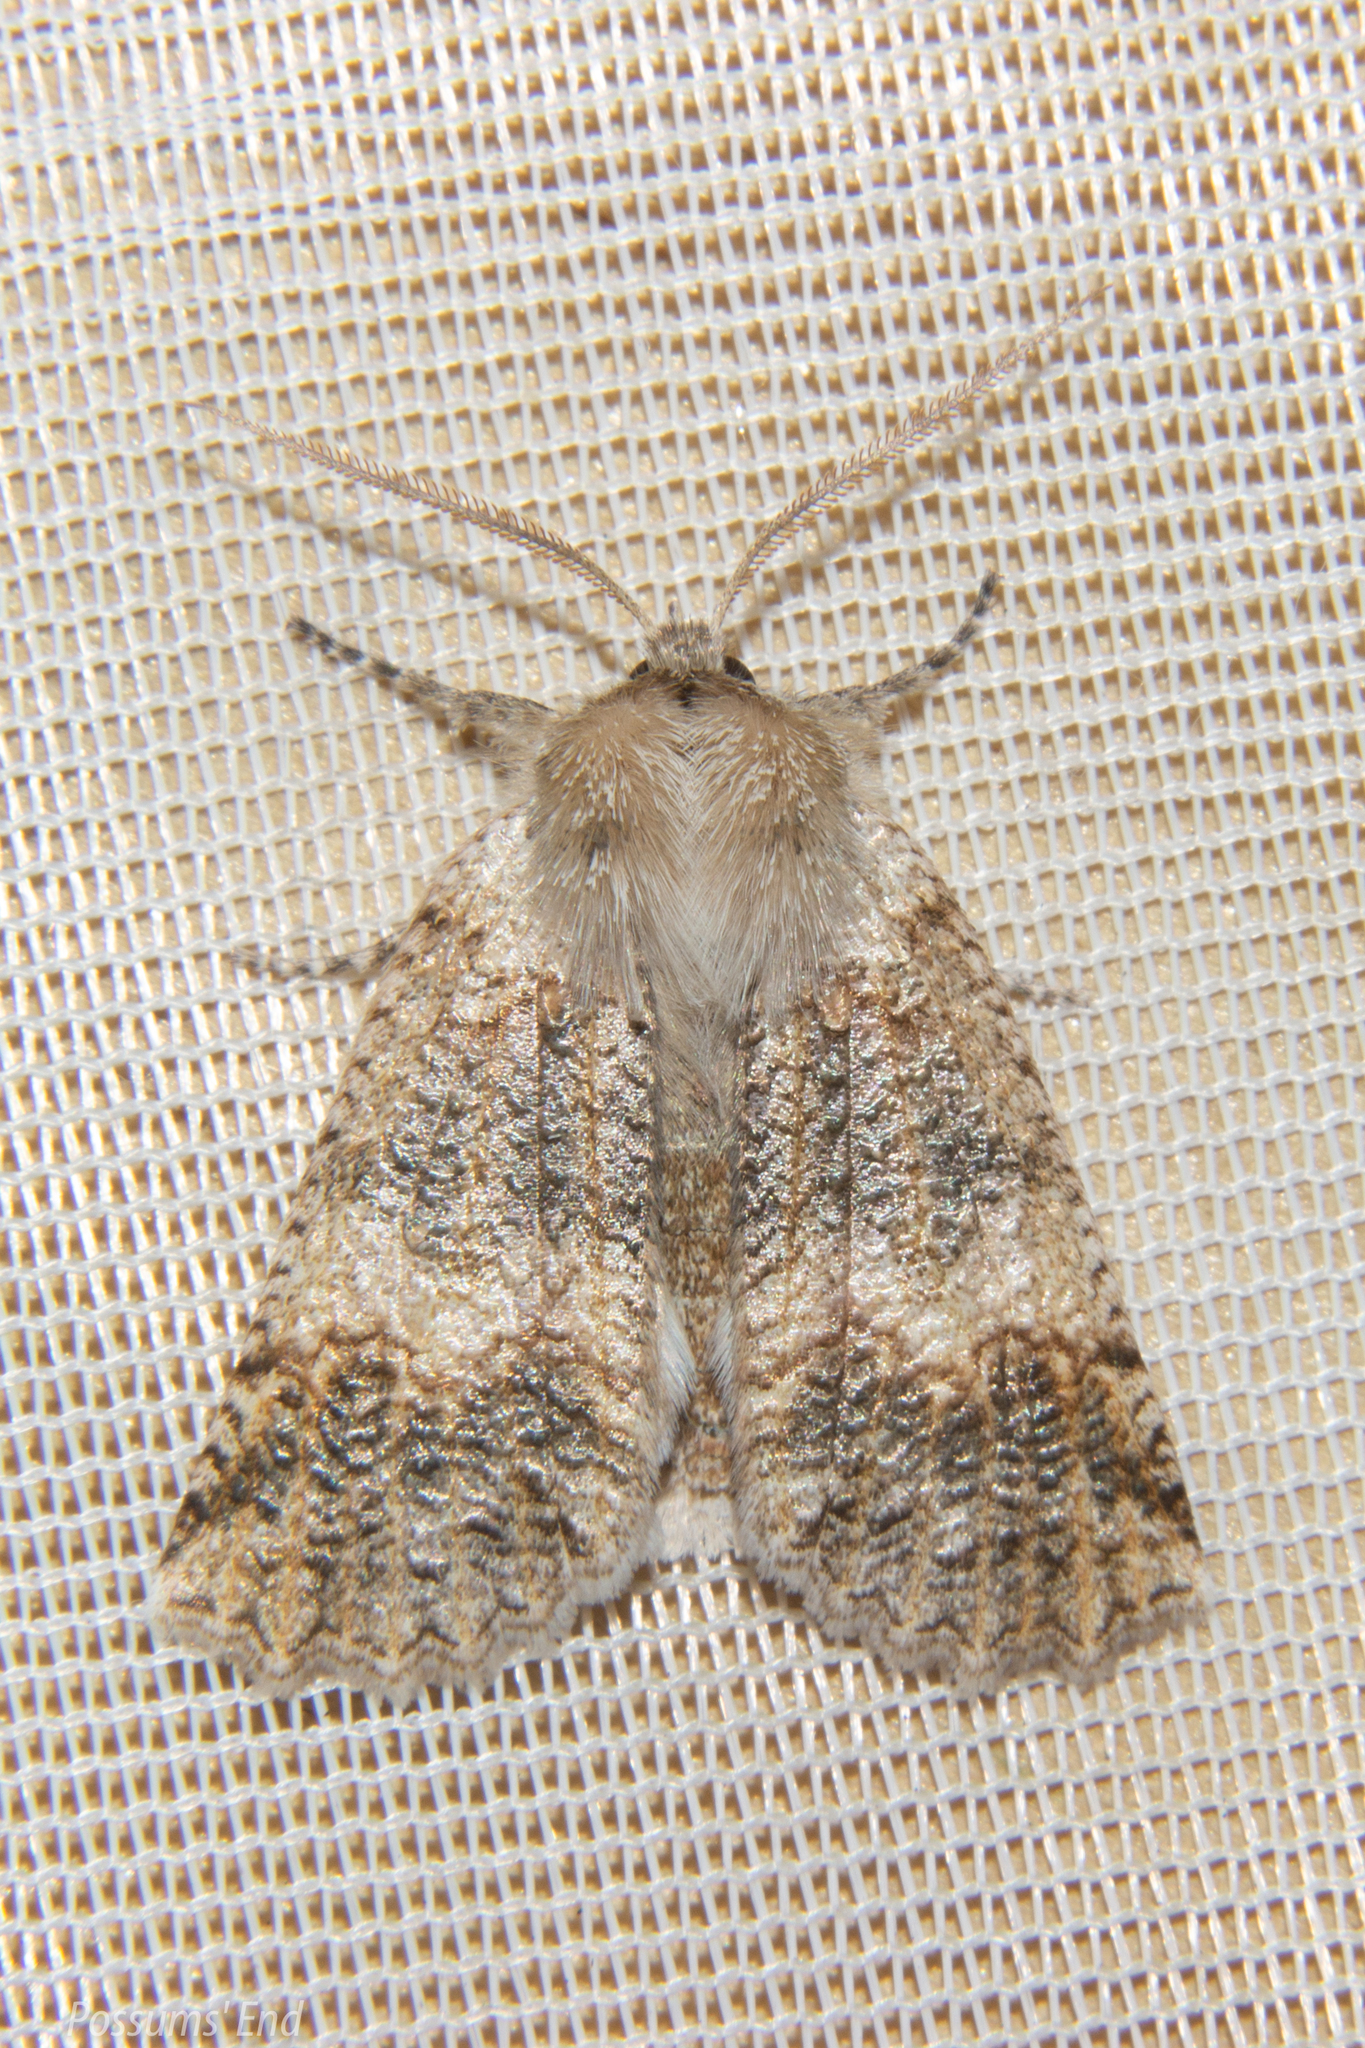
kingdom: Animalia
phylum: Arthropoda
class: Insecta
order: Lepidoptera
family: Geometridae
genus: Declana
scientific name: Declana floccosa
